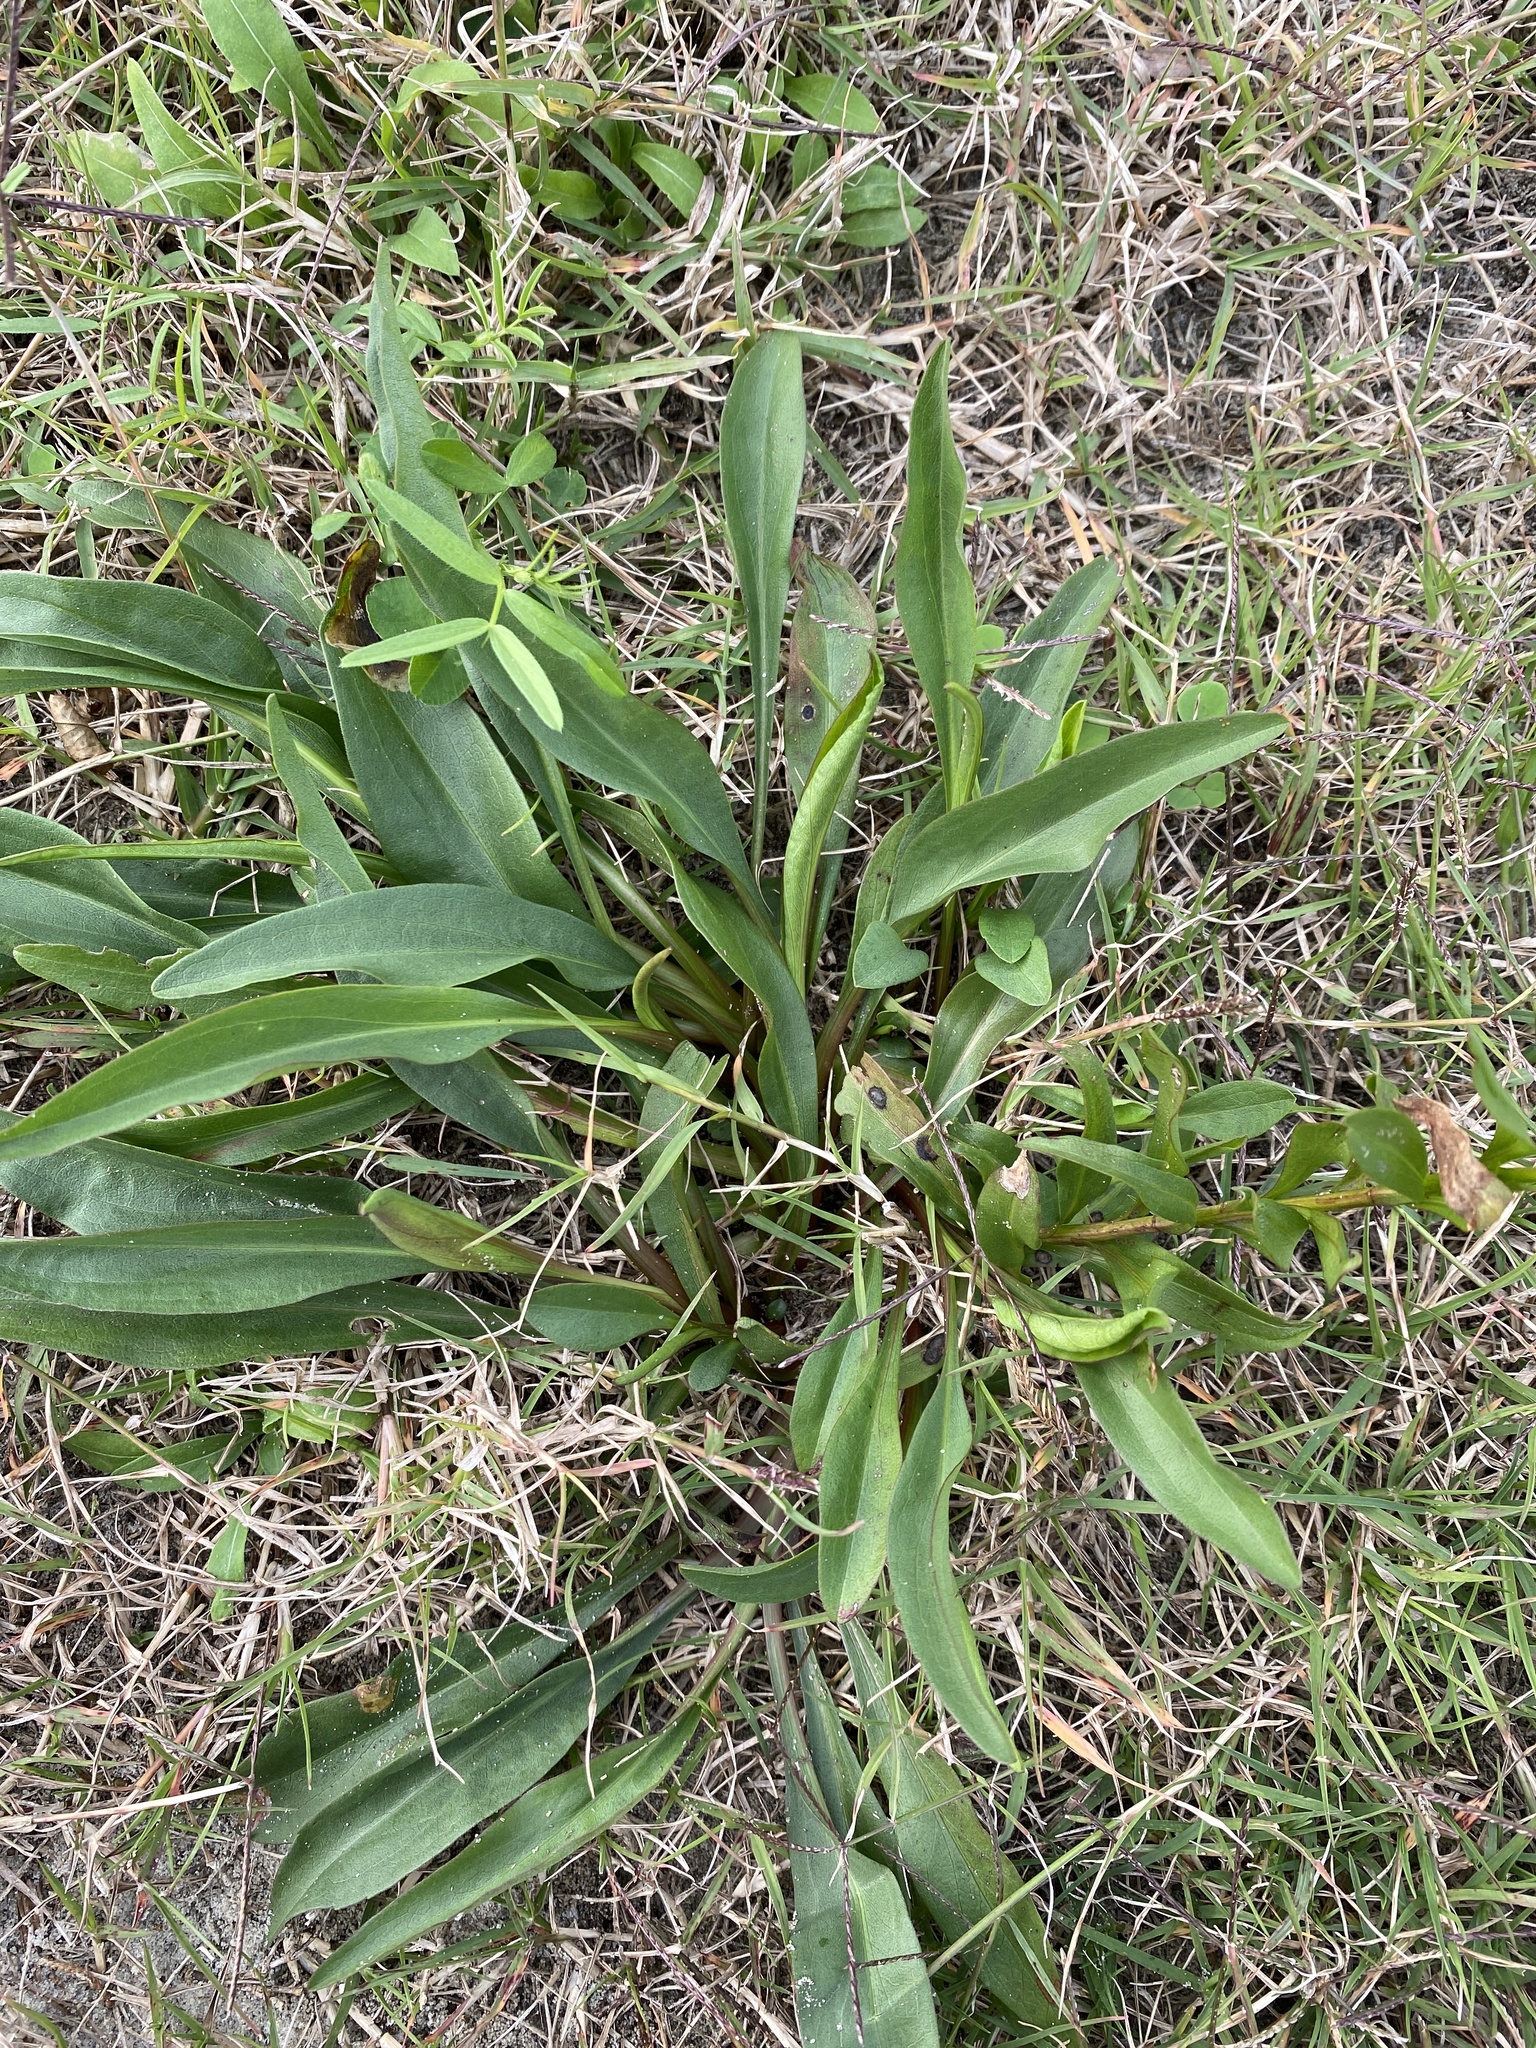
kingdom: Plantae
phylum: Tracheophyta
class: Magnoliopsida
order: Asterales
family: Asteraceae
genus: Solidago
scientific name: Solidago mexicana
